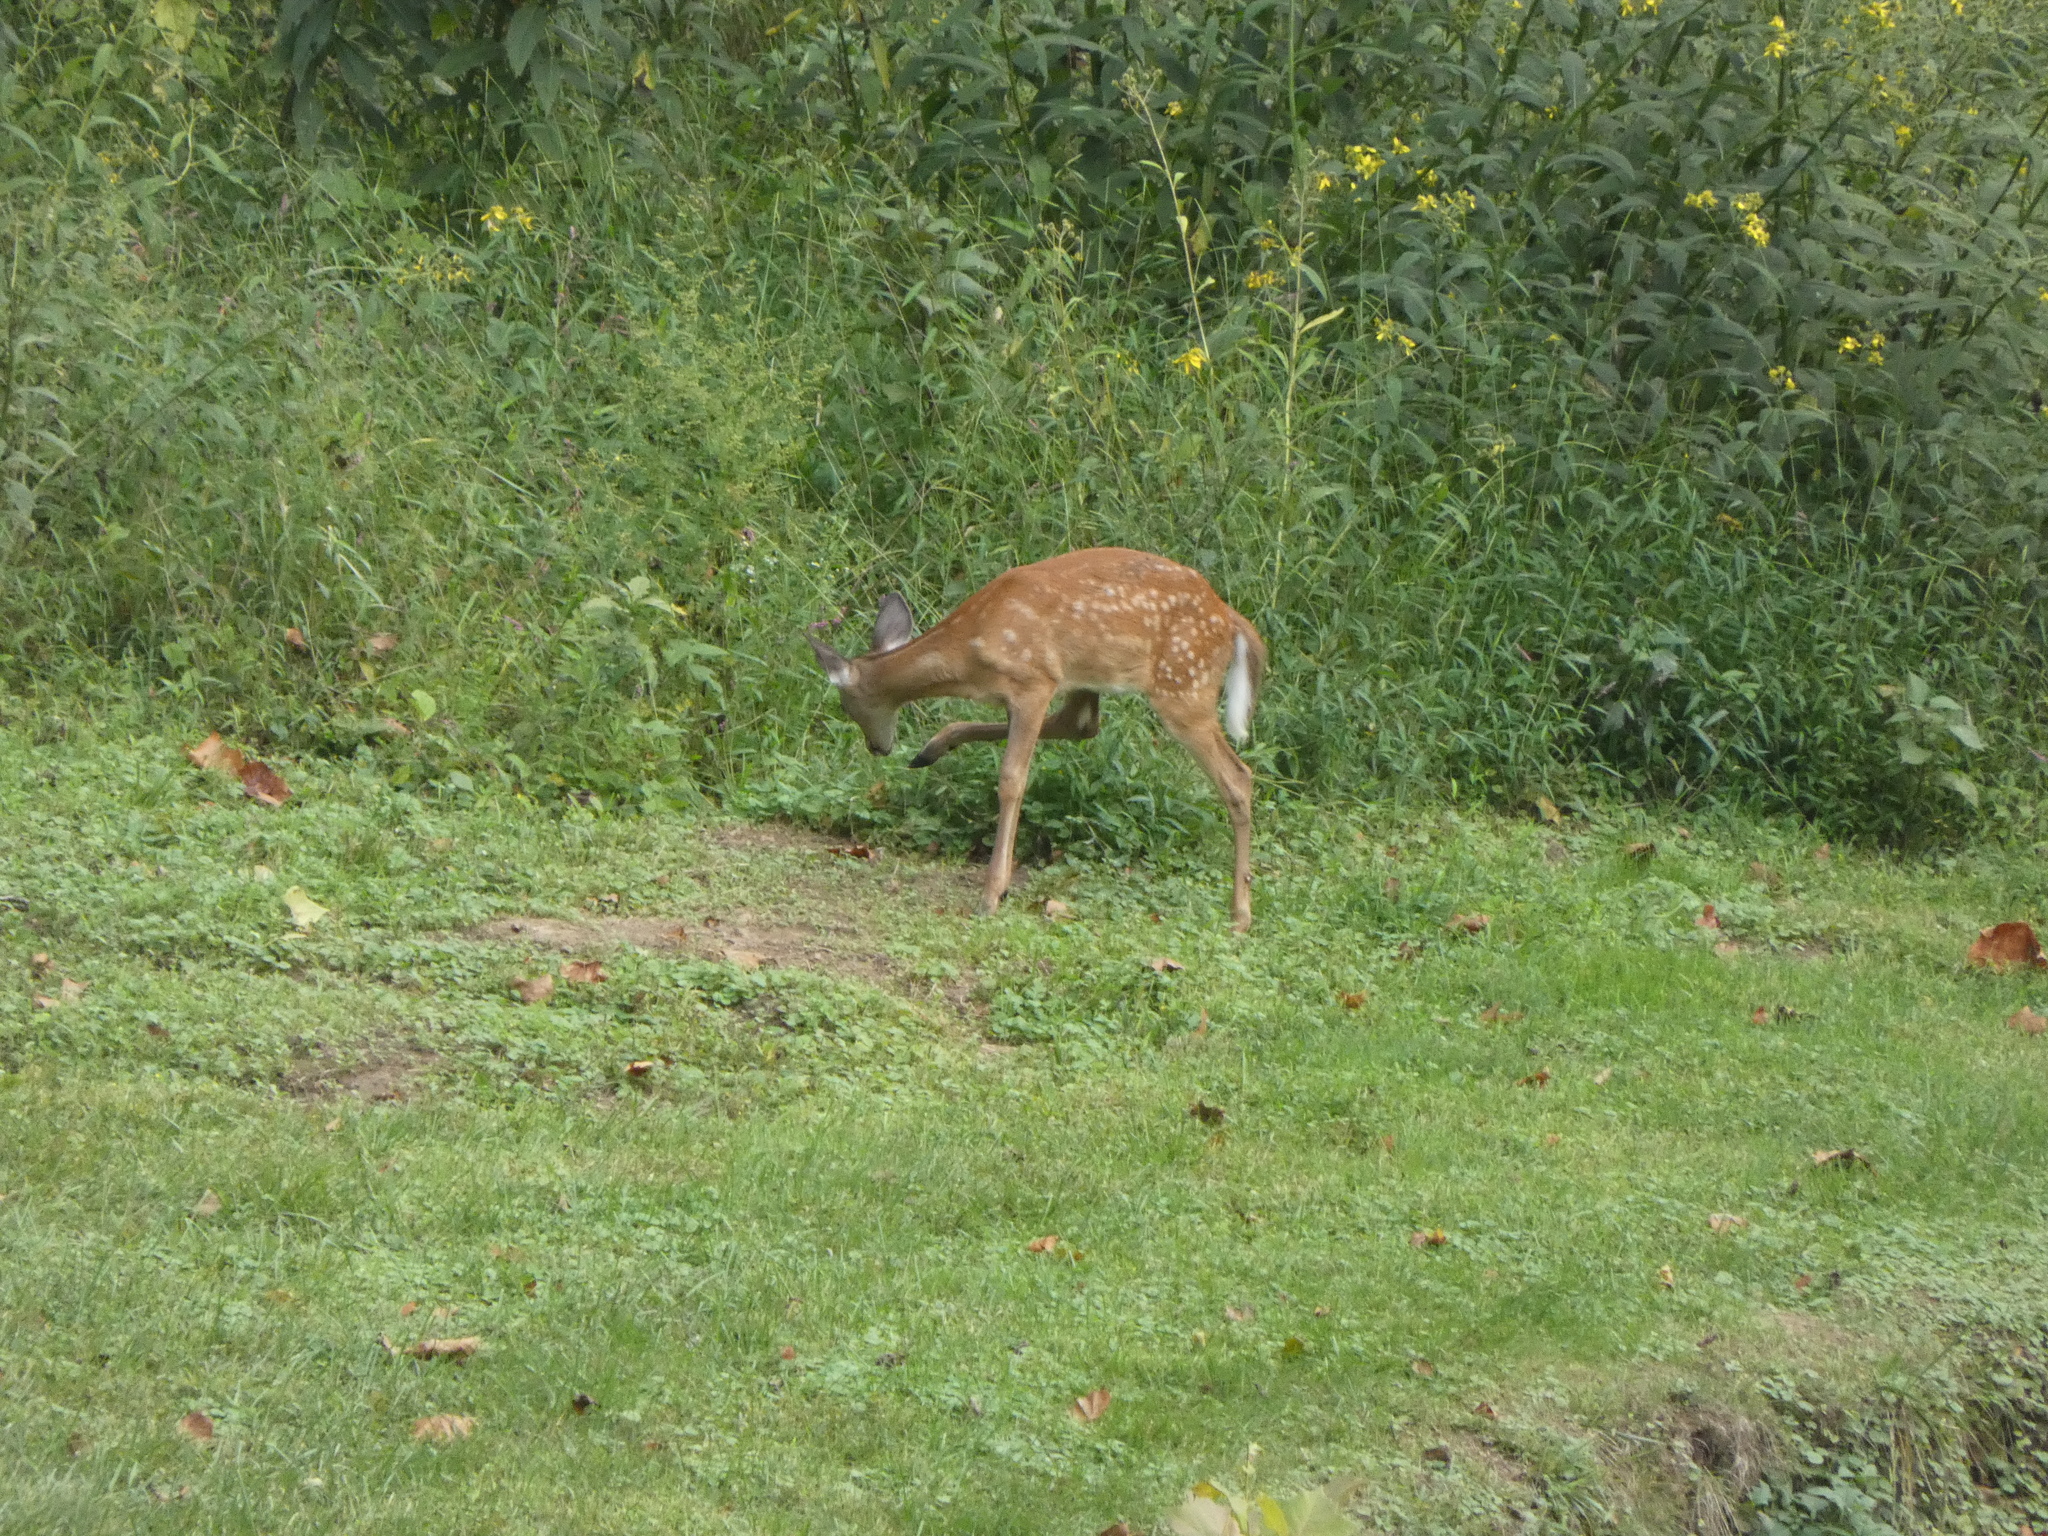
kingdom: Animalia
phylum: Chordata
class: Mammalia
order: Artiodactyla
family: Cervidae
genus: Odocoileus
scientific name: Odocoileus virginianus
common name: White-tailed deer
